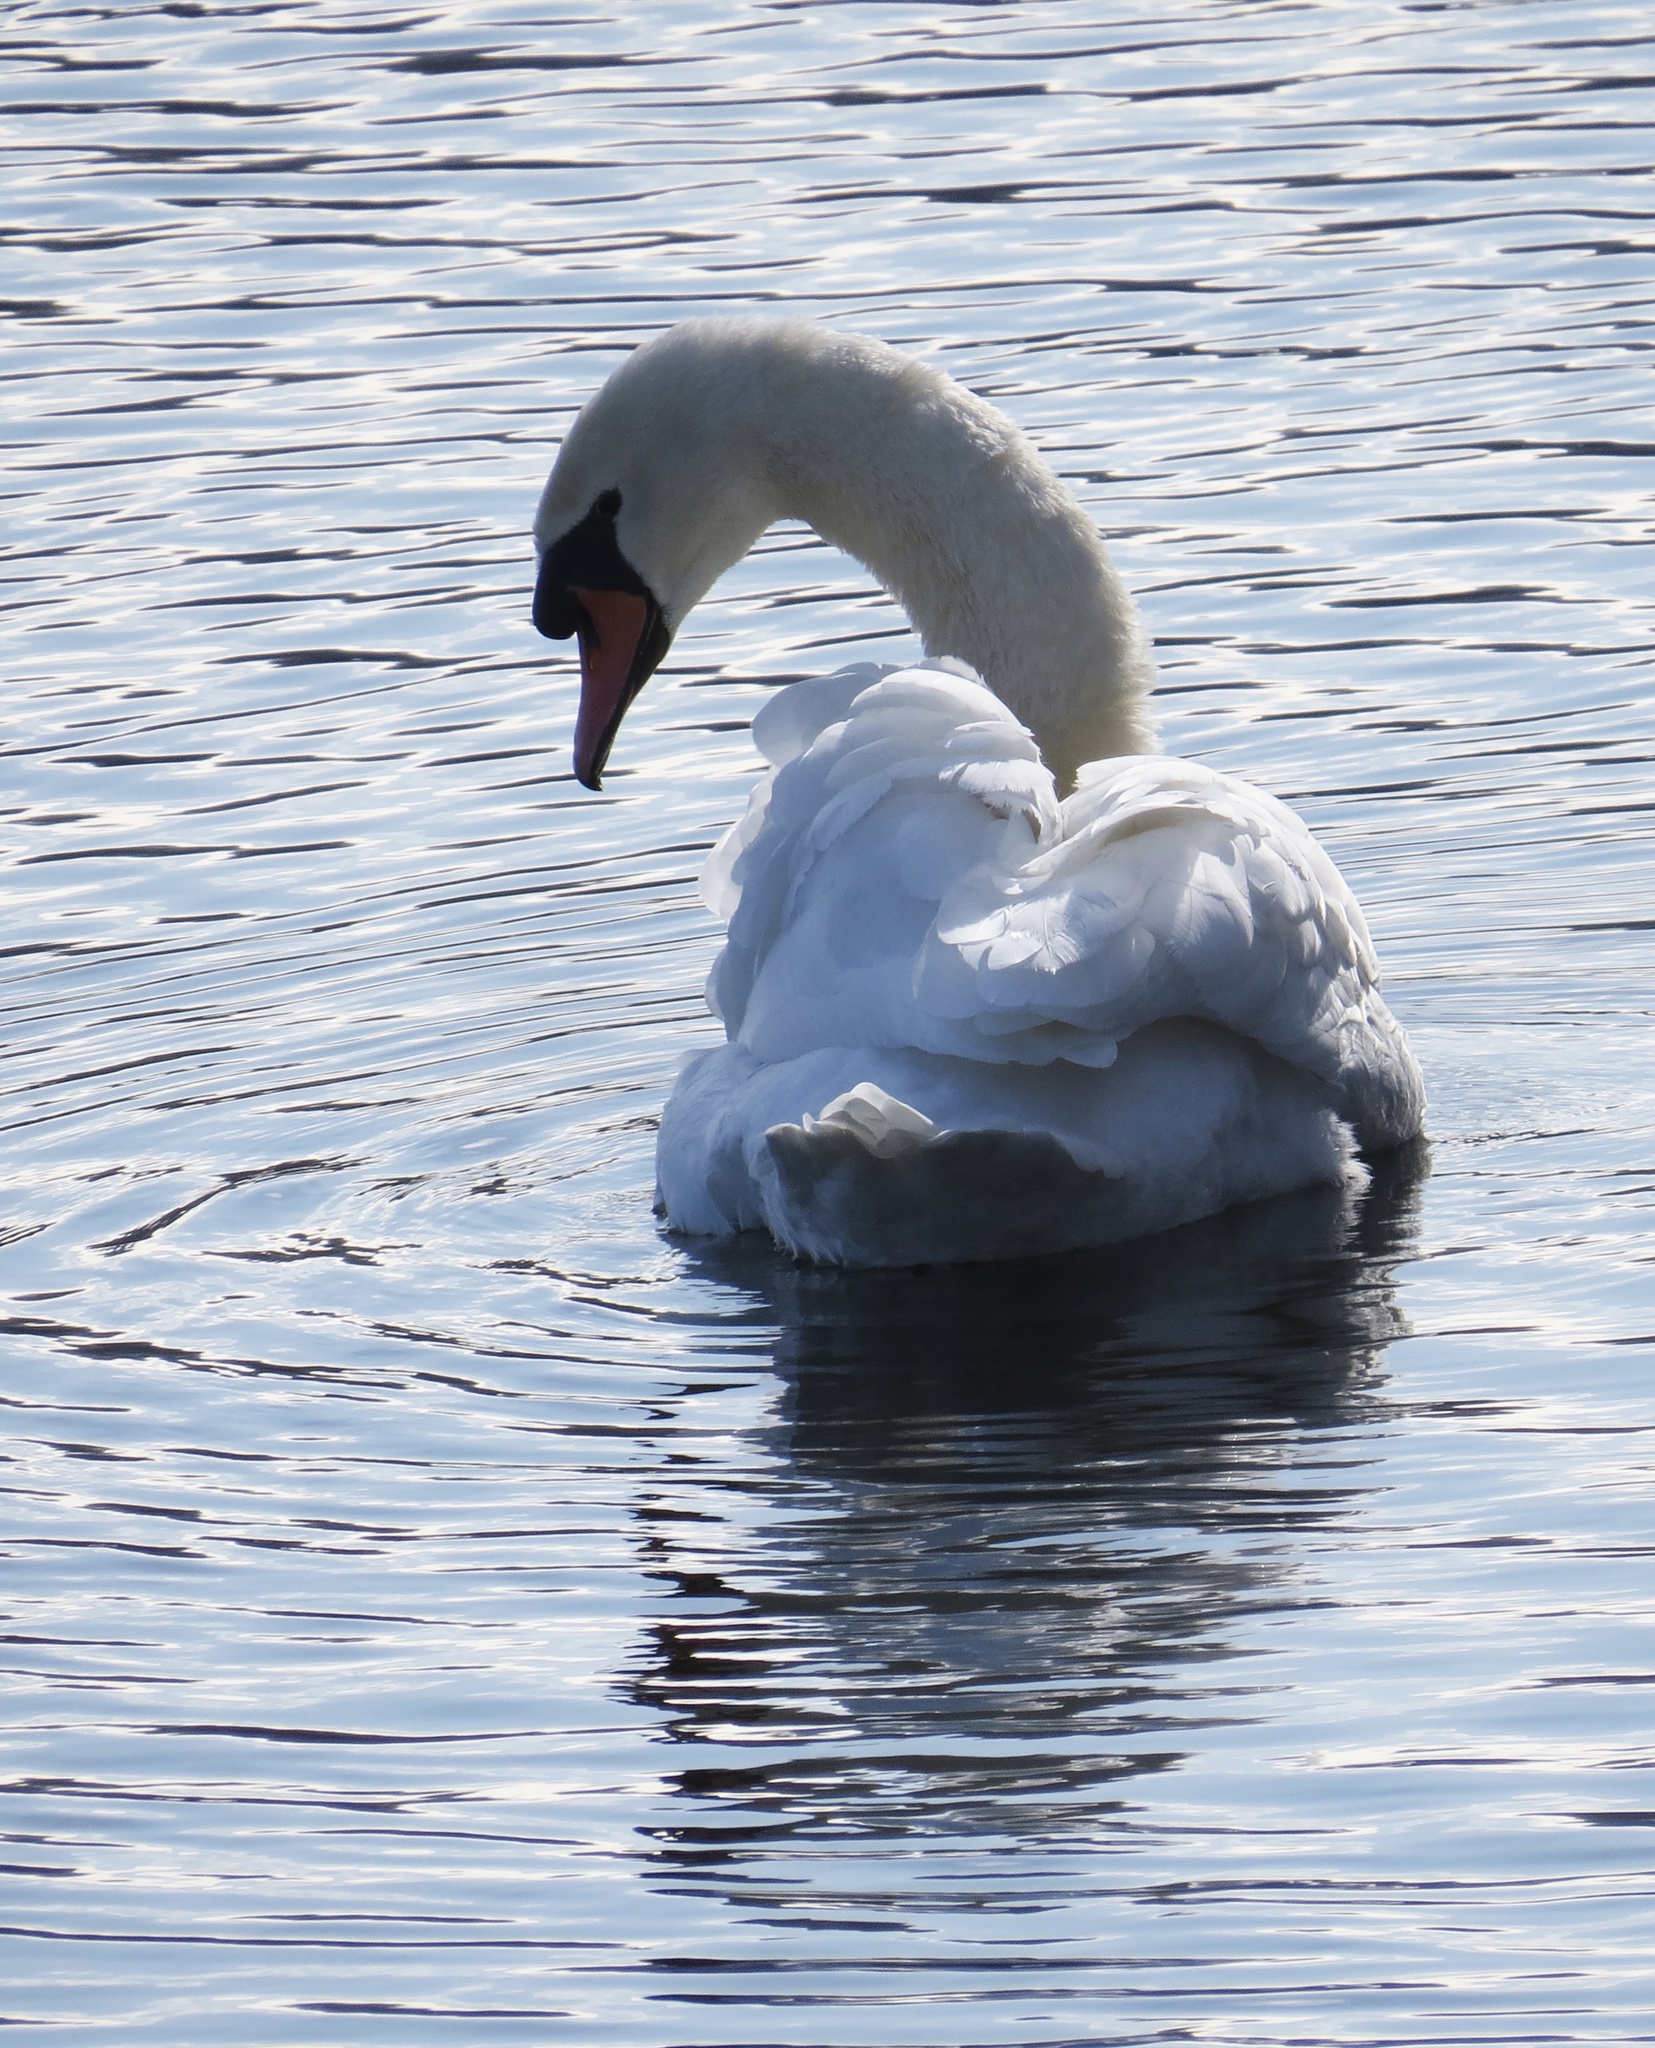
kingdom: Animalia
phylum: Chordata
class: Aves
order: Anseriformes
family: Anatidae
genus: Cygnus
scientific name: Cygnus olor
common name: Mute swan
